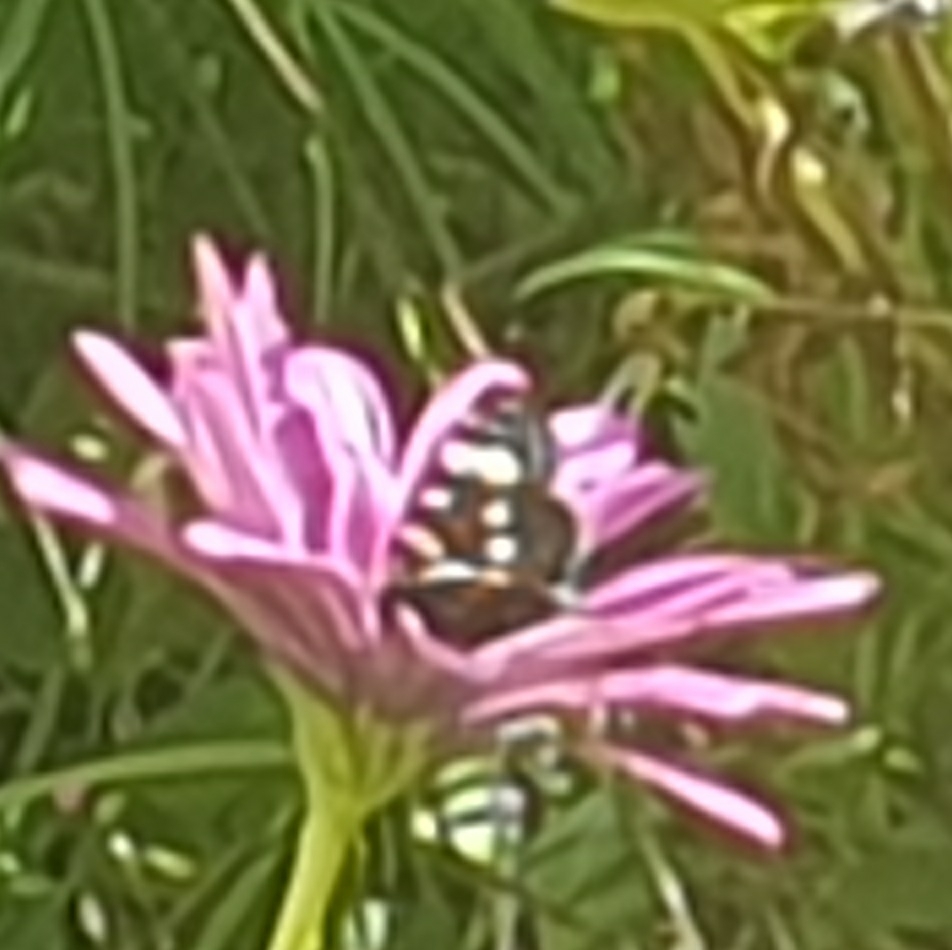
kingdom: Animalia
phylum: Arthropoda
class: Insecta
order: Lepidoptera
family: Noctuidae
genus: Phalaenoides
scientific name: Phalaenoides tristifica
